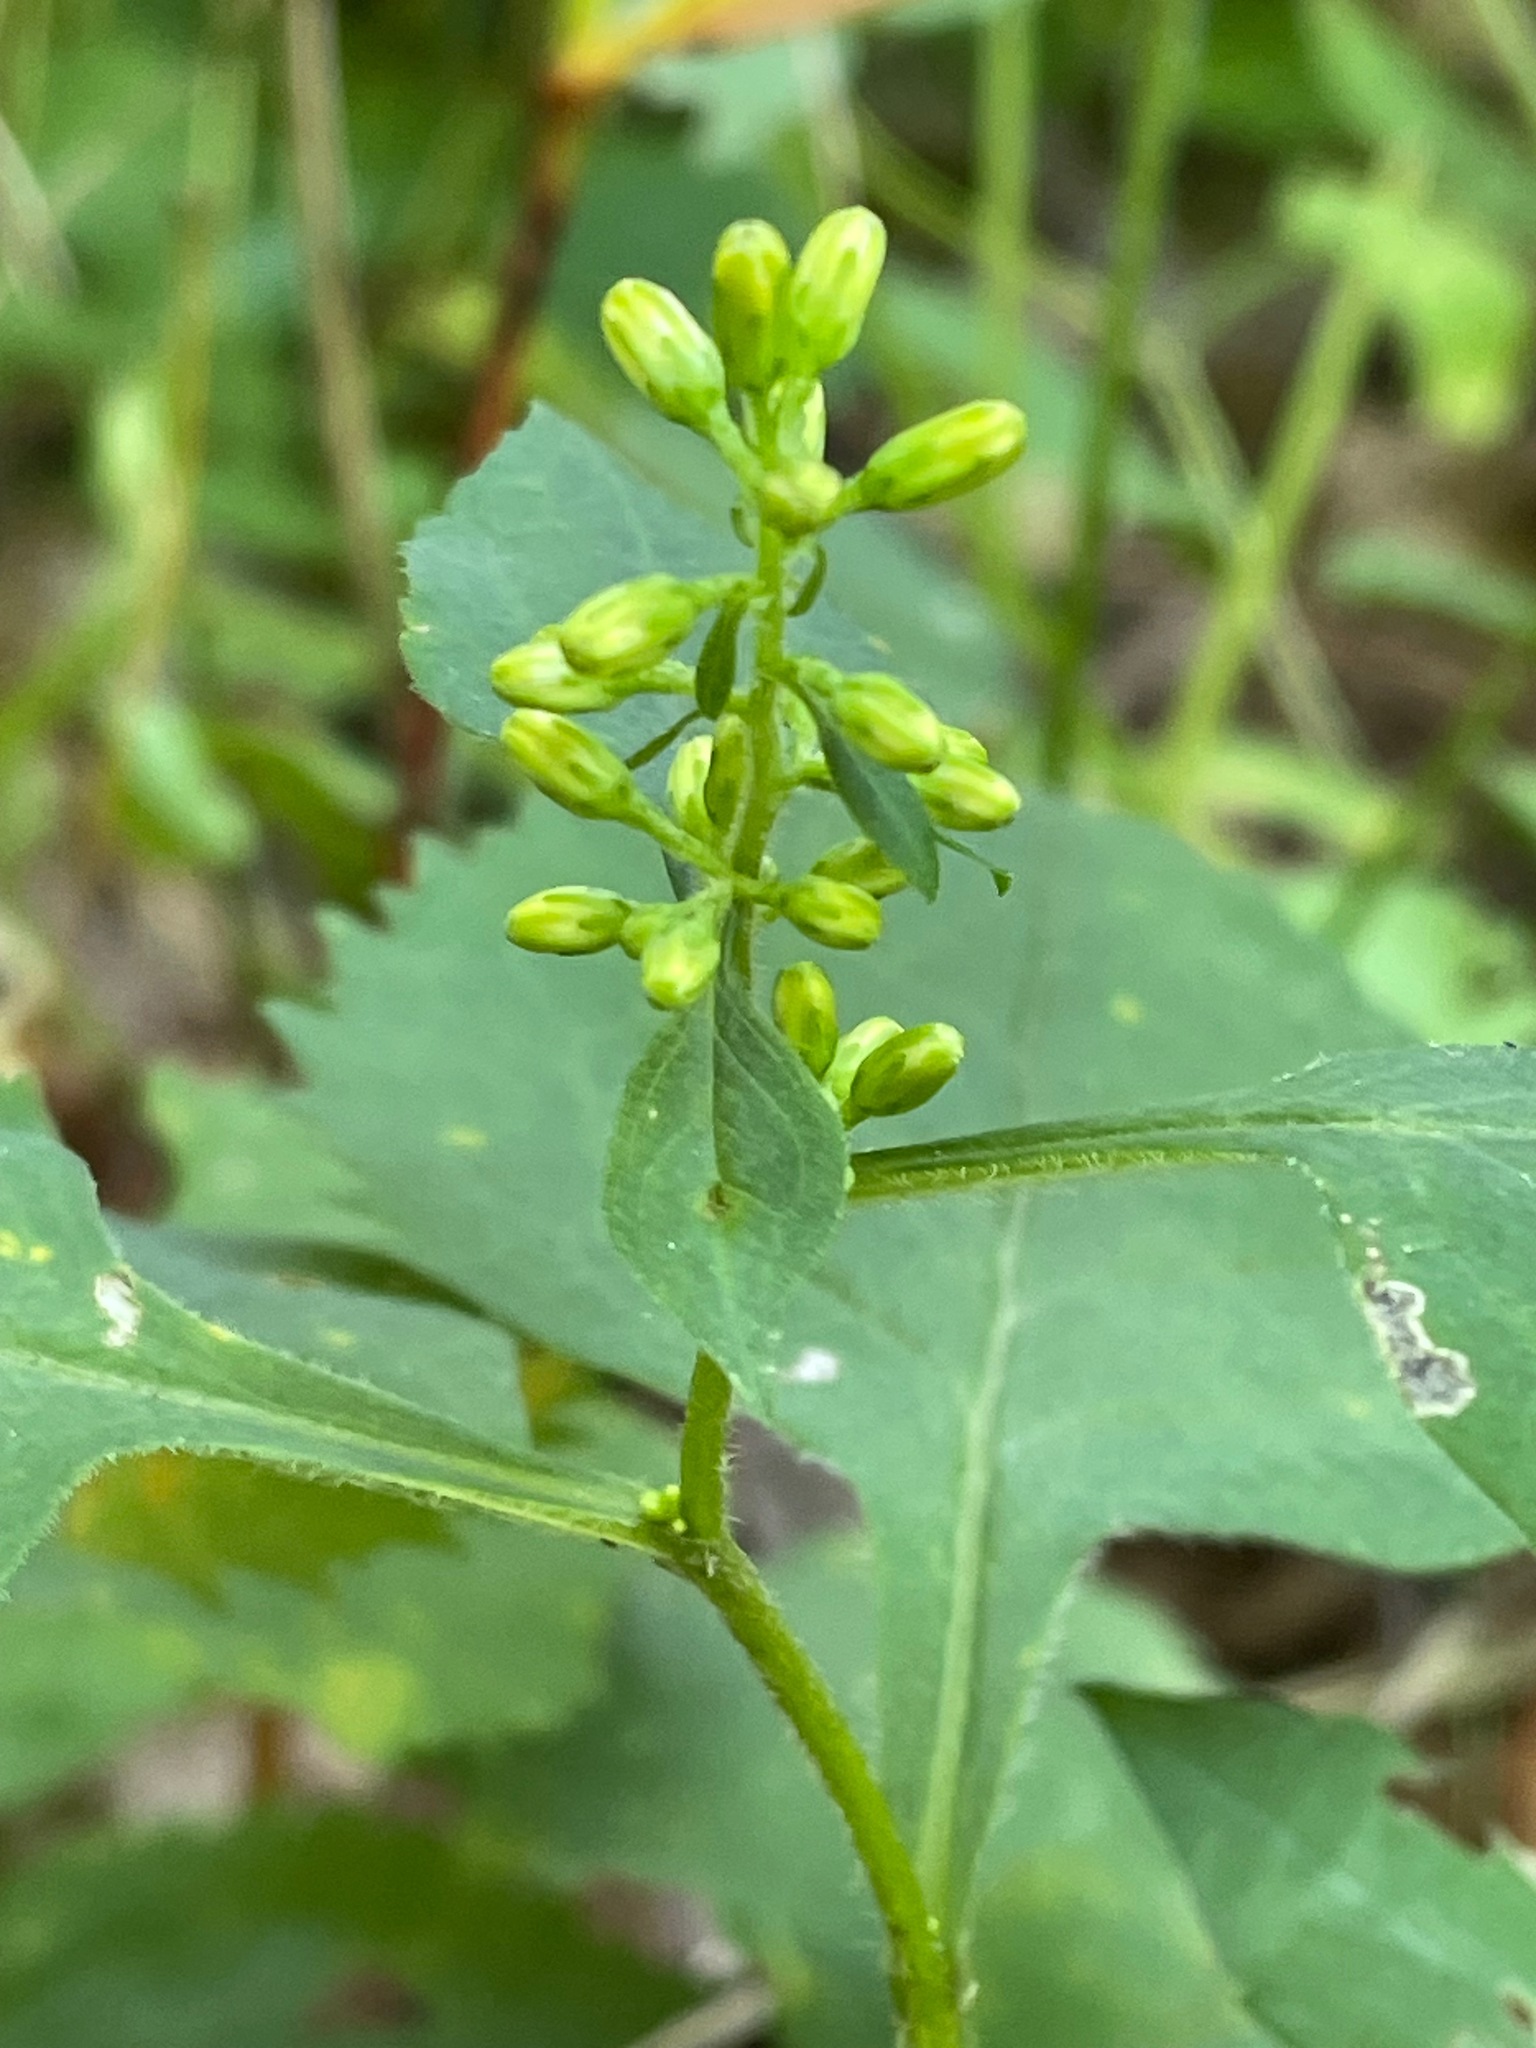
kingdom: Plantae
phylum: Tracheophyta
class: Magnoliopsida
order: Asterales
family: Asteraceae
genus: Solidago
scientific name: Solidago flexicaulis
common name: Zig-zag goldenrod
